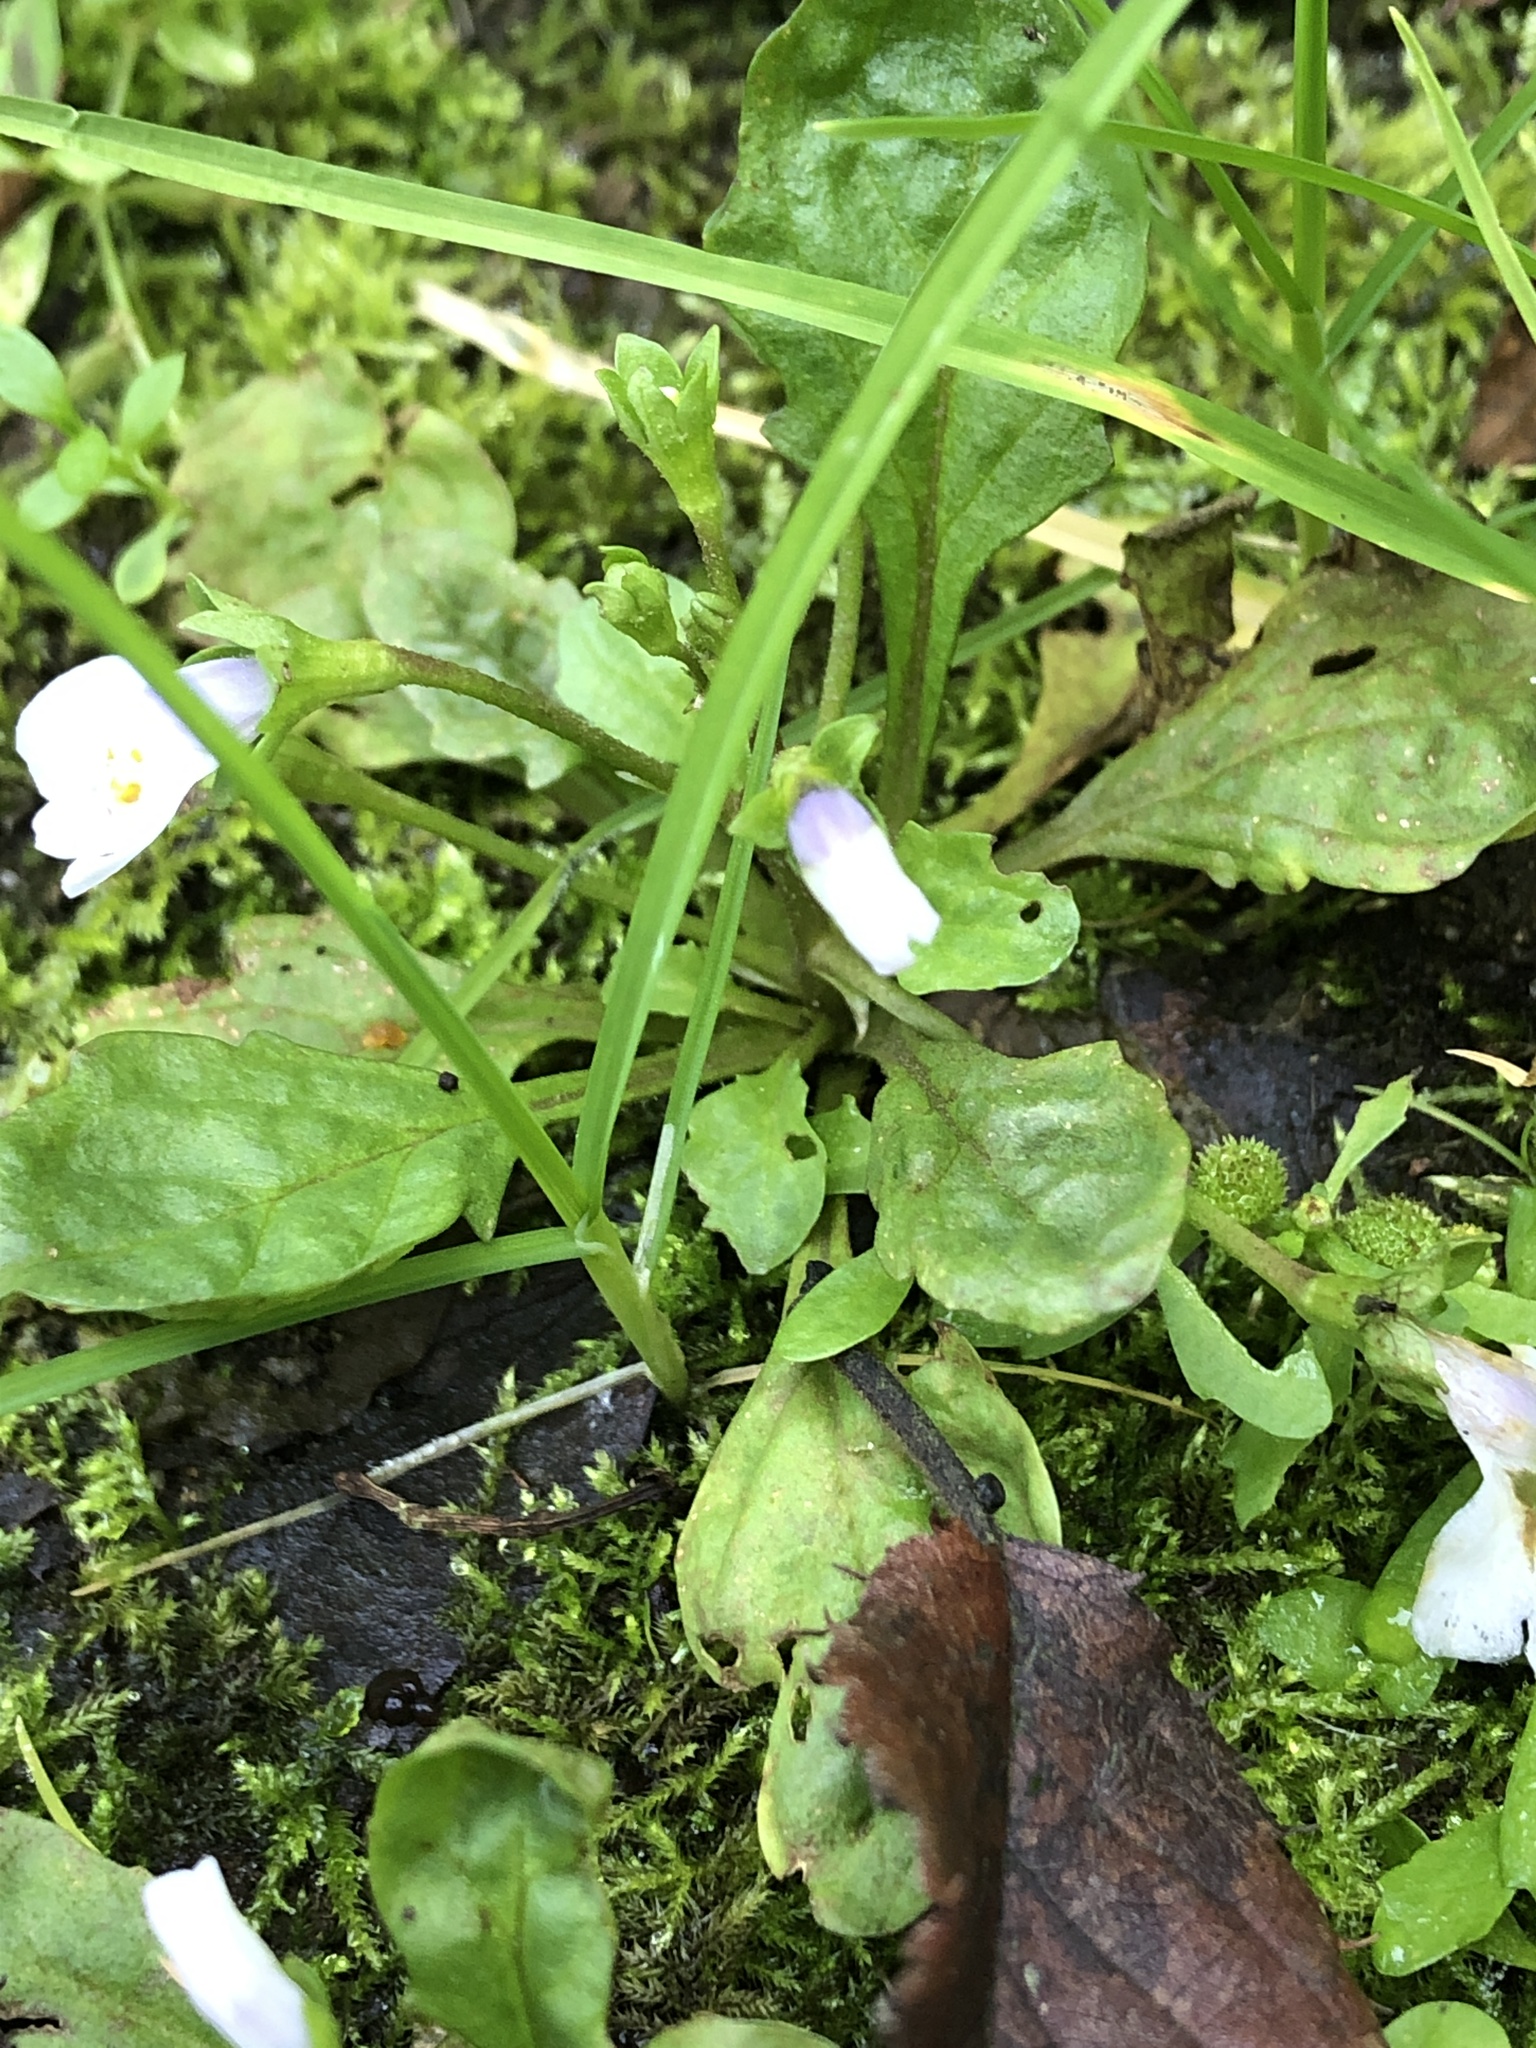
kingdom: Plantae
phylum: Tracheophyta
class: Magnoliopsida
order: Lamiales
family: Mazaceae
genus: Mazus
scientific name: Mazus pumilus
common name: Japanese mazus
